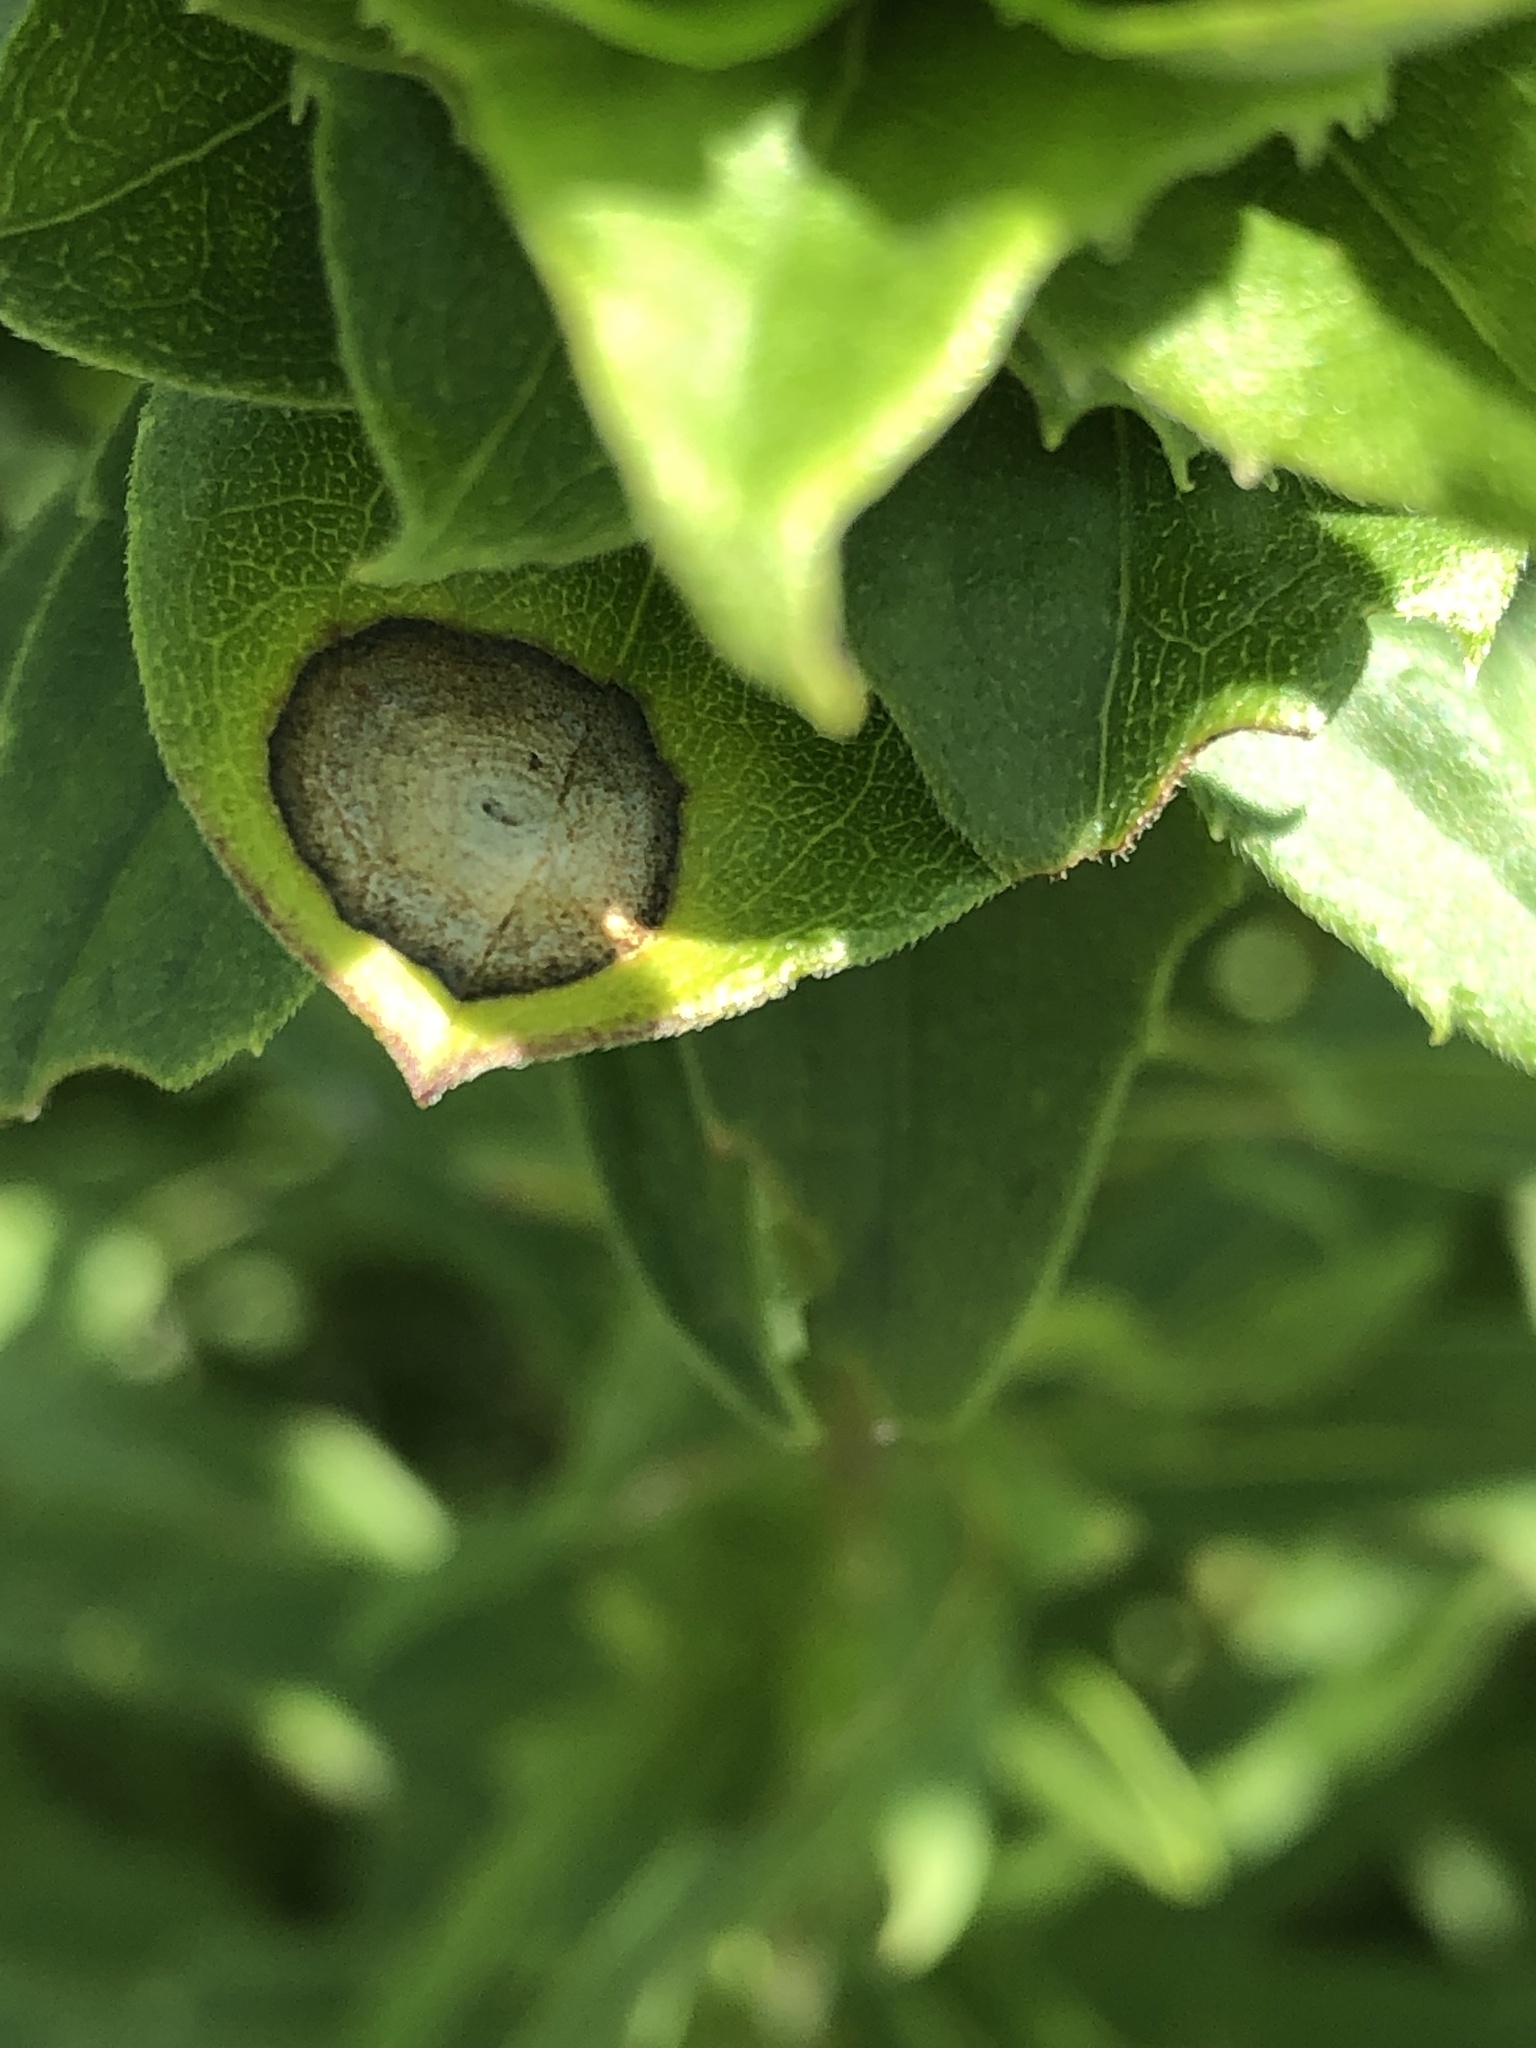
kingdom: Animalia
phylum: Arthropoda
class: Insecta
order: Diptera
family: Cecidomyiidae
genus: Asteromyia
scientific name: Asteromyia carbonifera
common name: Carbonifera goldenrod gall midge
